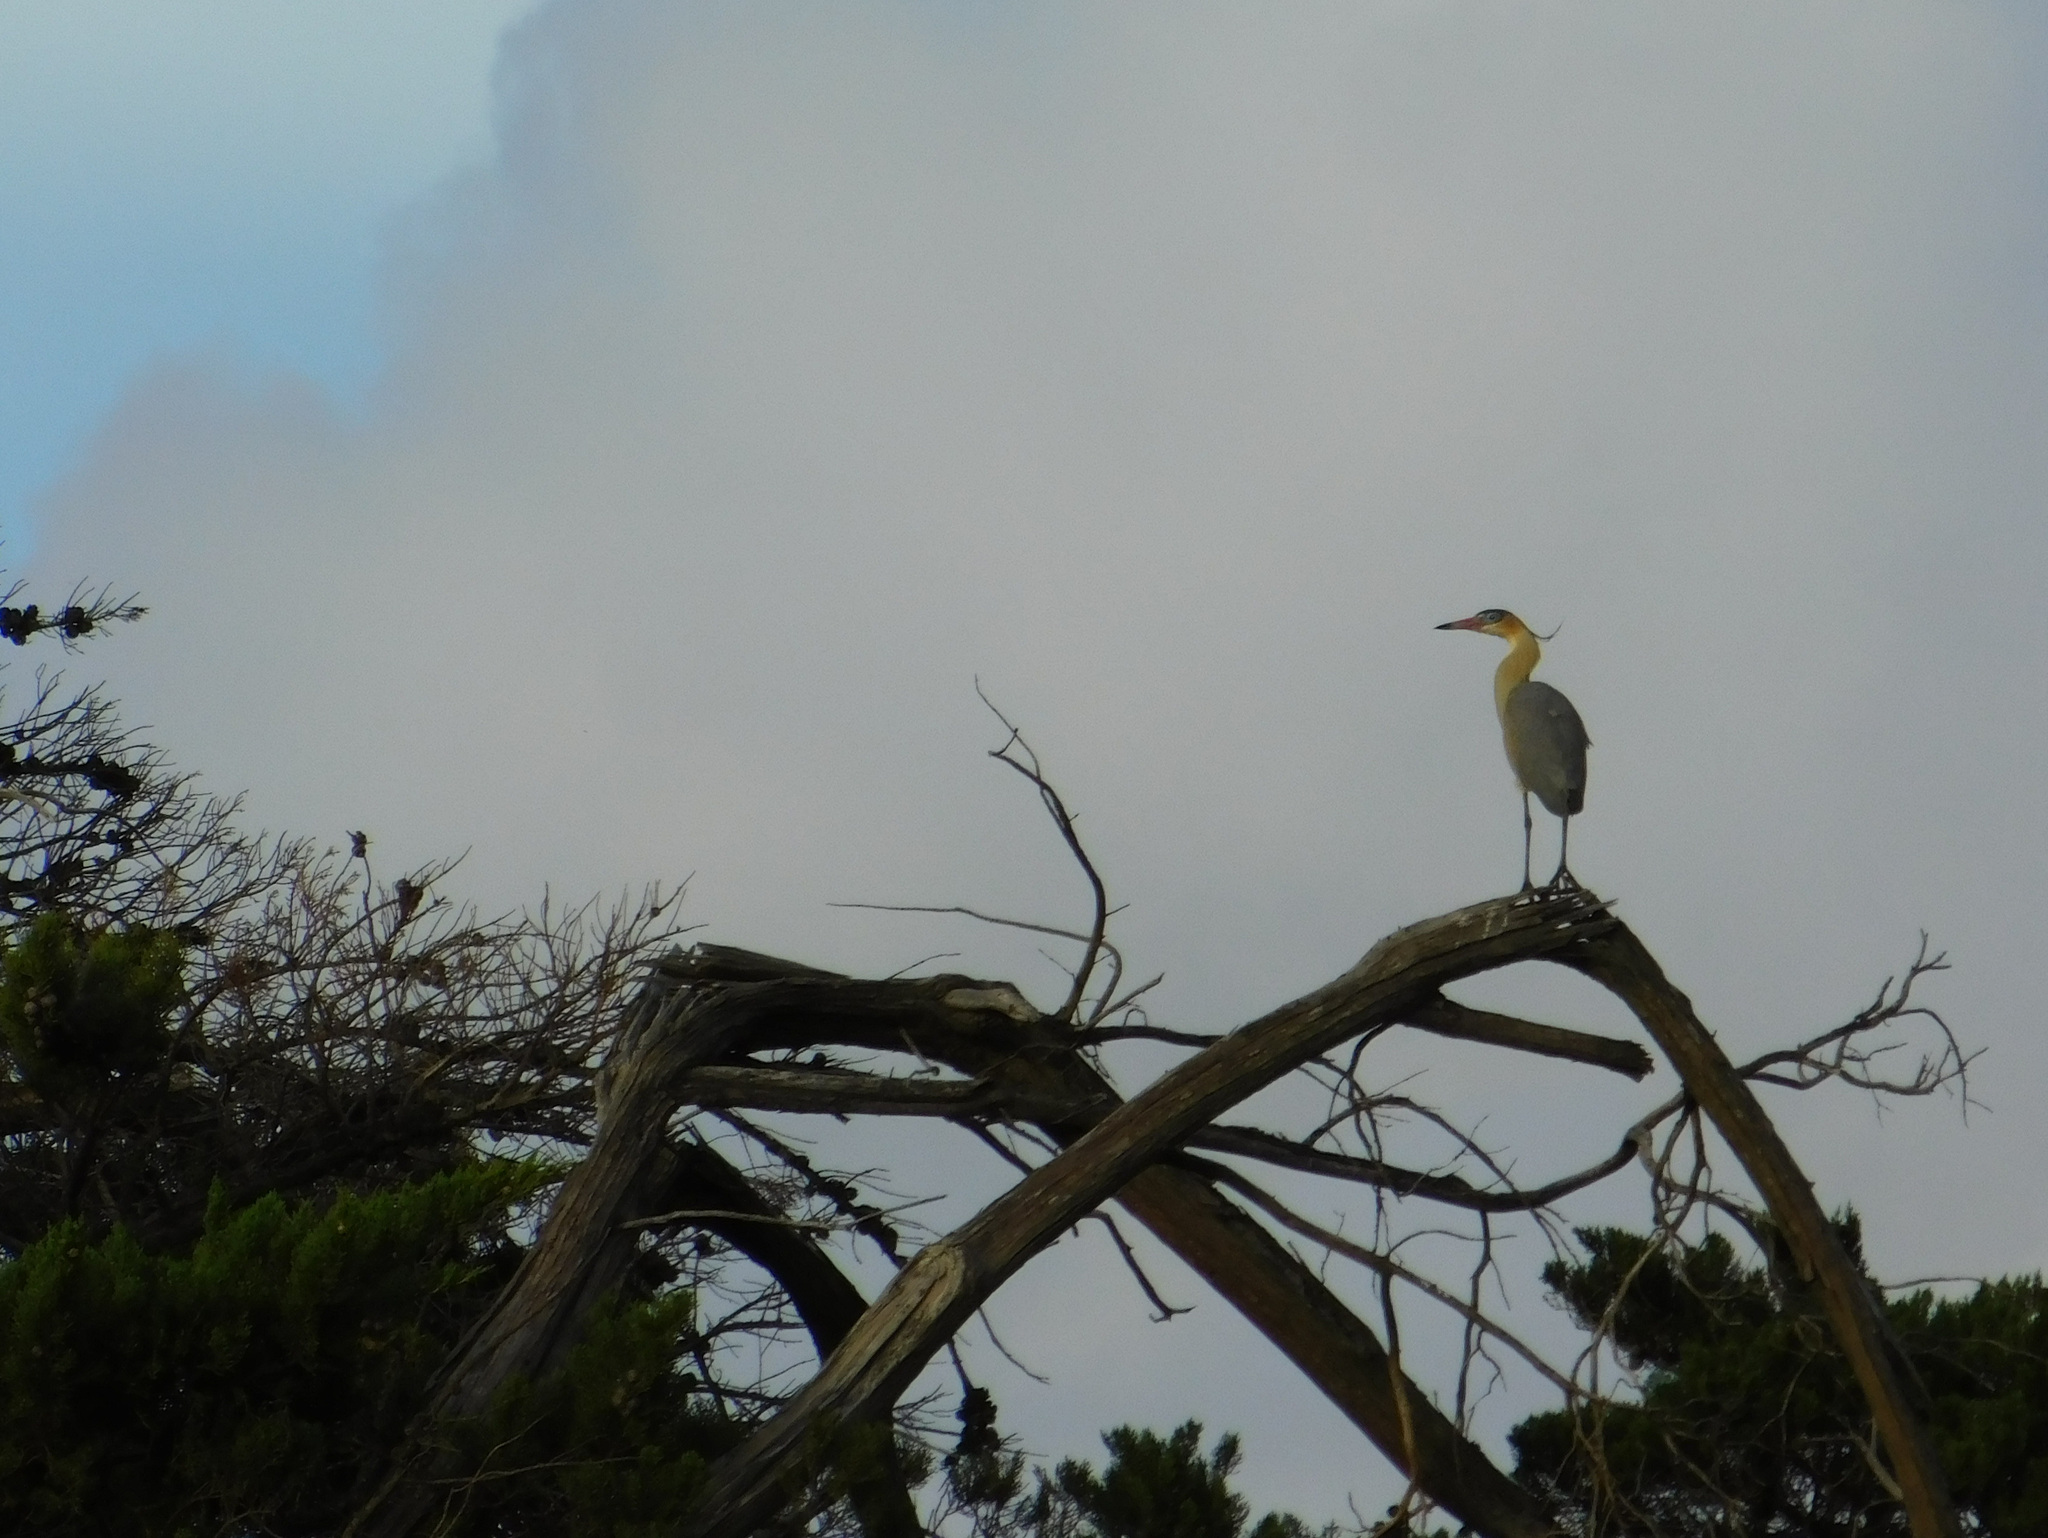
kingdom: Animalia
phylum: Chordata
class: Aves
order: Pelecaniformes
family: Ardeidae
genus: Syrigma
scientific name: Syrigma sibilatrix
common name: Whistling heron
